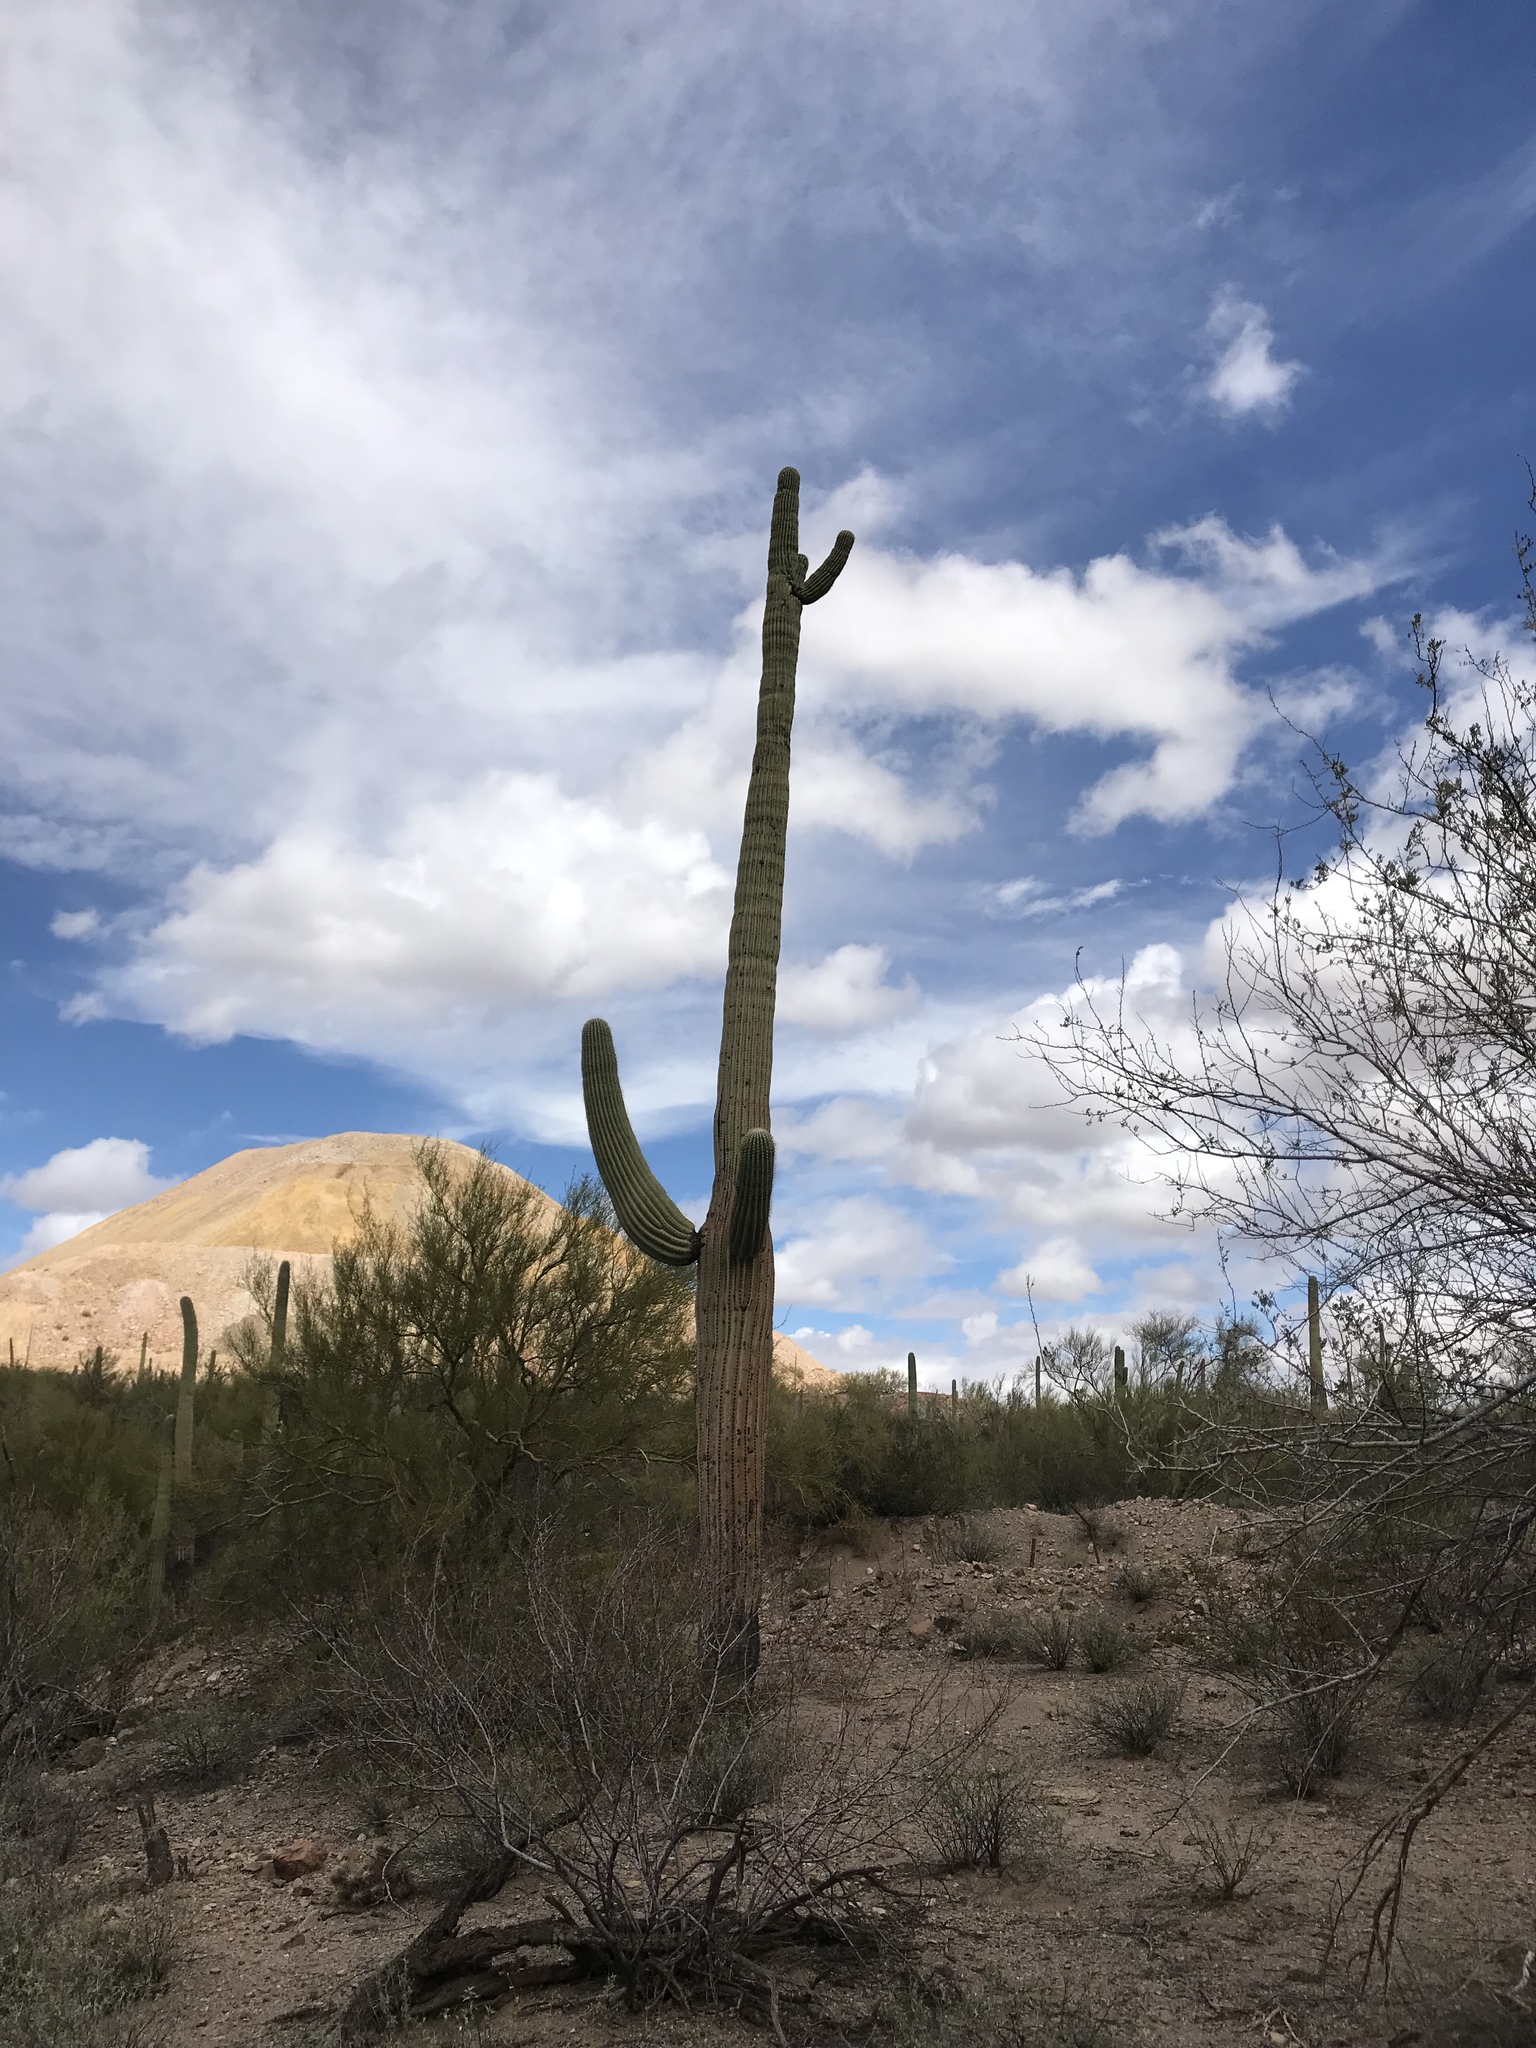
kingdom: Plantae
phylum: Tracheophyta
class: Magnoliopsida
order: Caryophyllales
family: Cactaceae
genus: Carnegiea
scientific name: Carnegiea gigantea
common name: Saguaro
